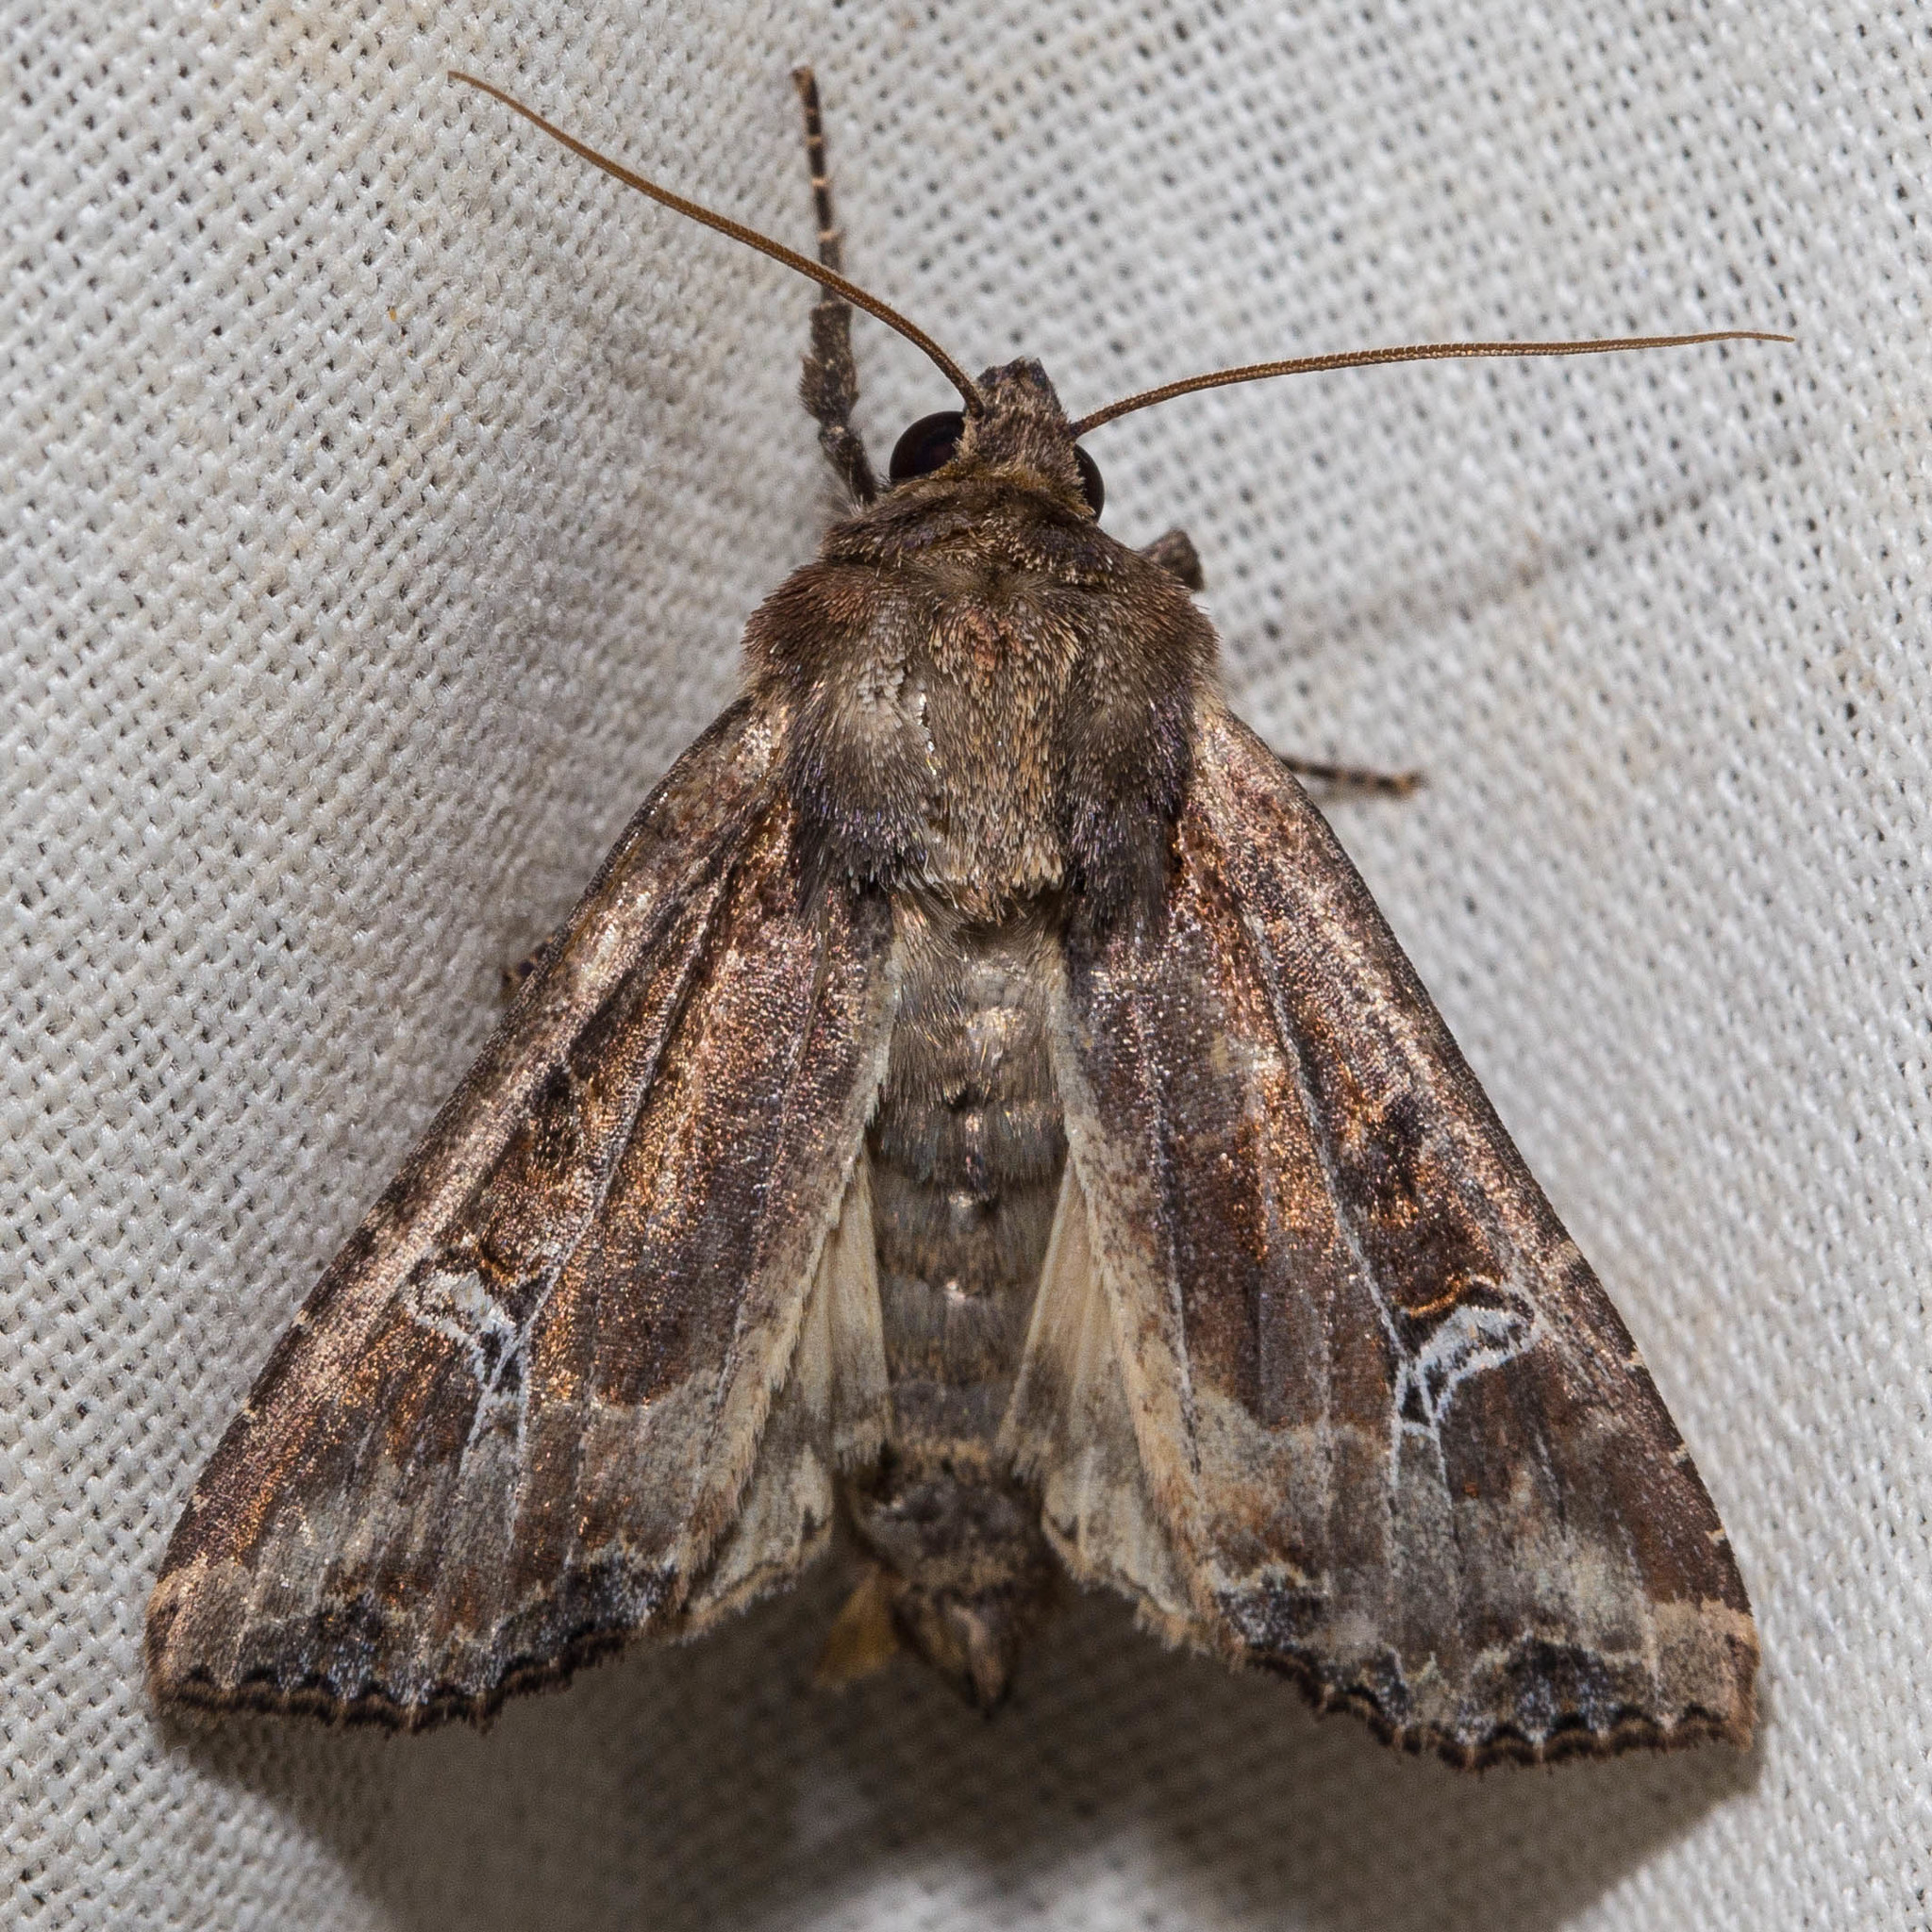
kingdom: Animalia
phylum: Arthropoda
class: Insecta
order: Lepidoptera
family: Noctuidae
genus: Helotropha
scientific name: Helotropha reniformis
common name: Kidney-spotted rustic moth
